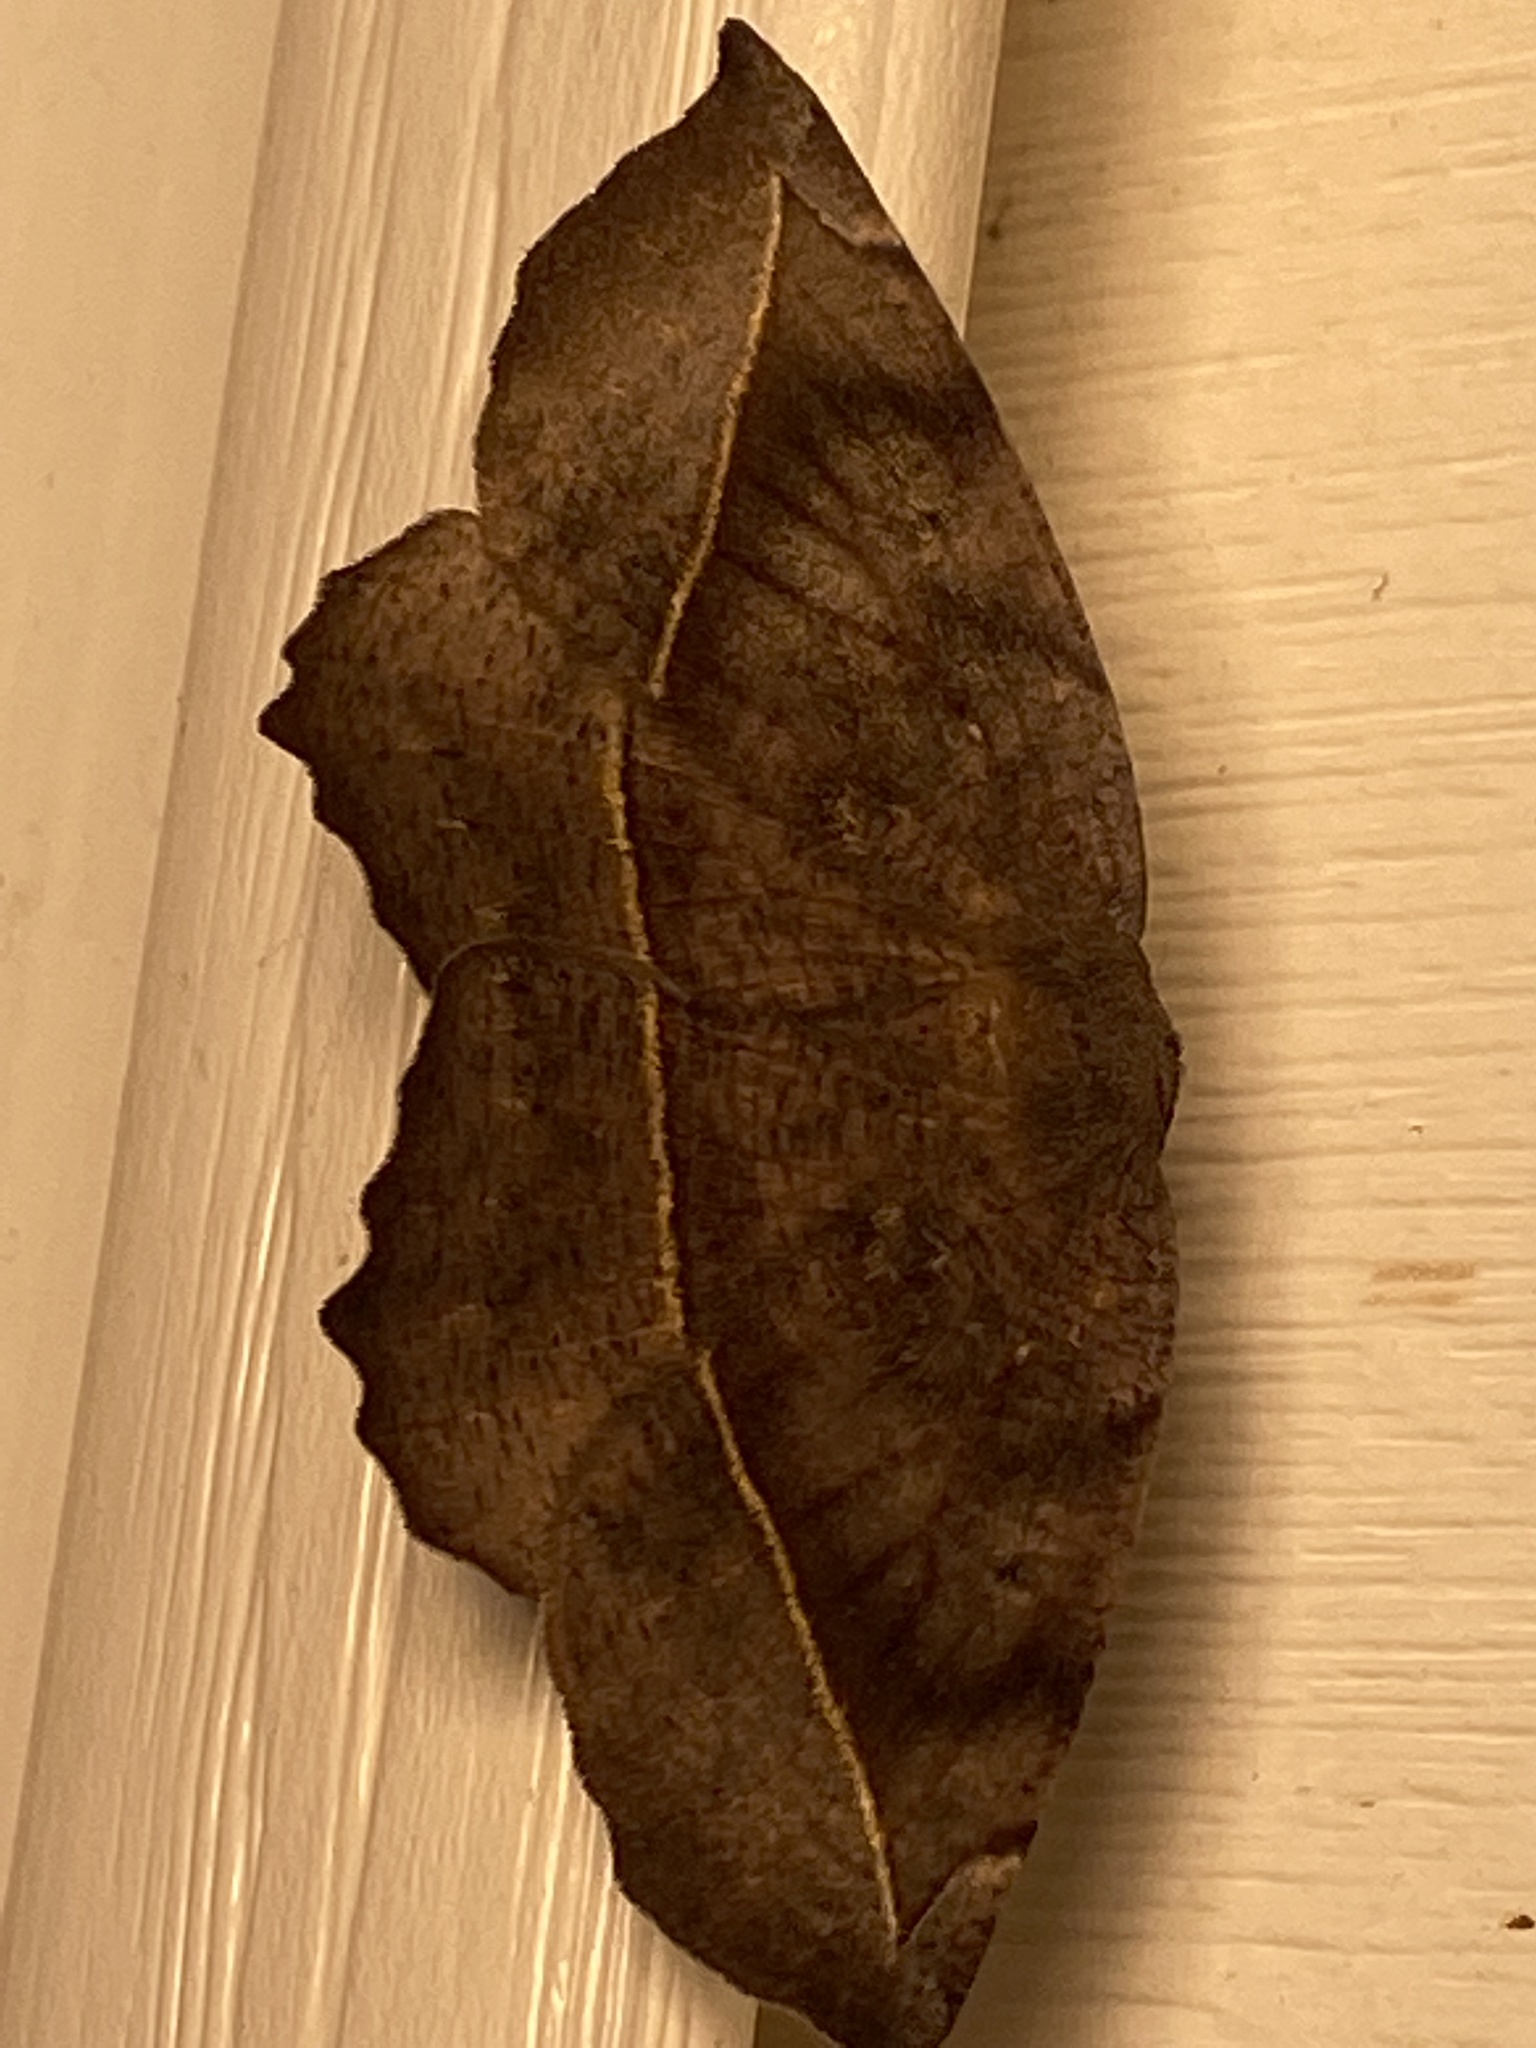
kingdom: Animalia
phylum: Arthropoda
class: Insecta
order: Lepidoptera
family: Geometridae
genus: Eutrapela
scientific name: Eutrapela clemataria
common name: Curved-toothed geometer
